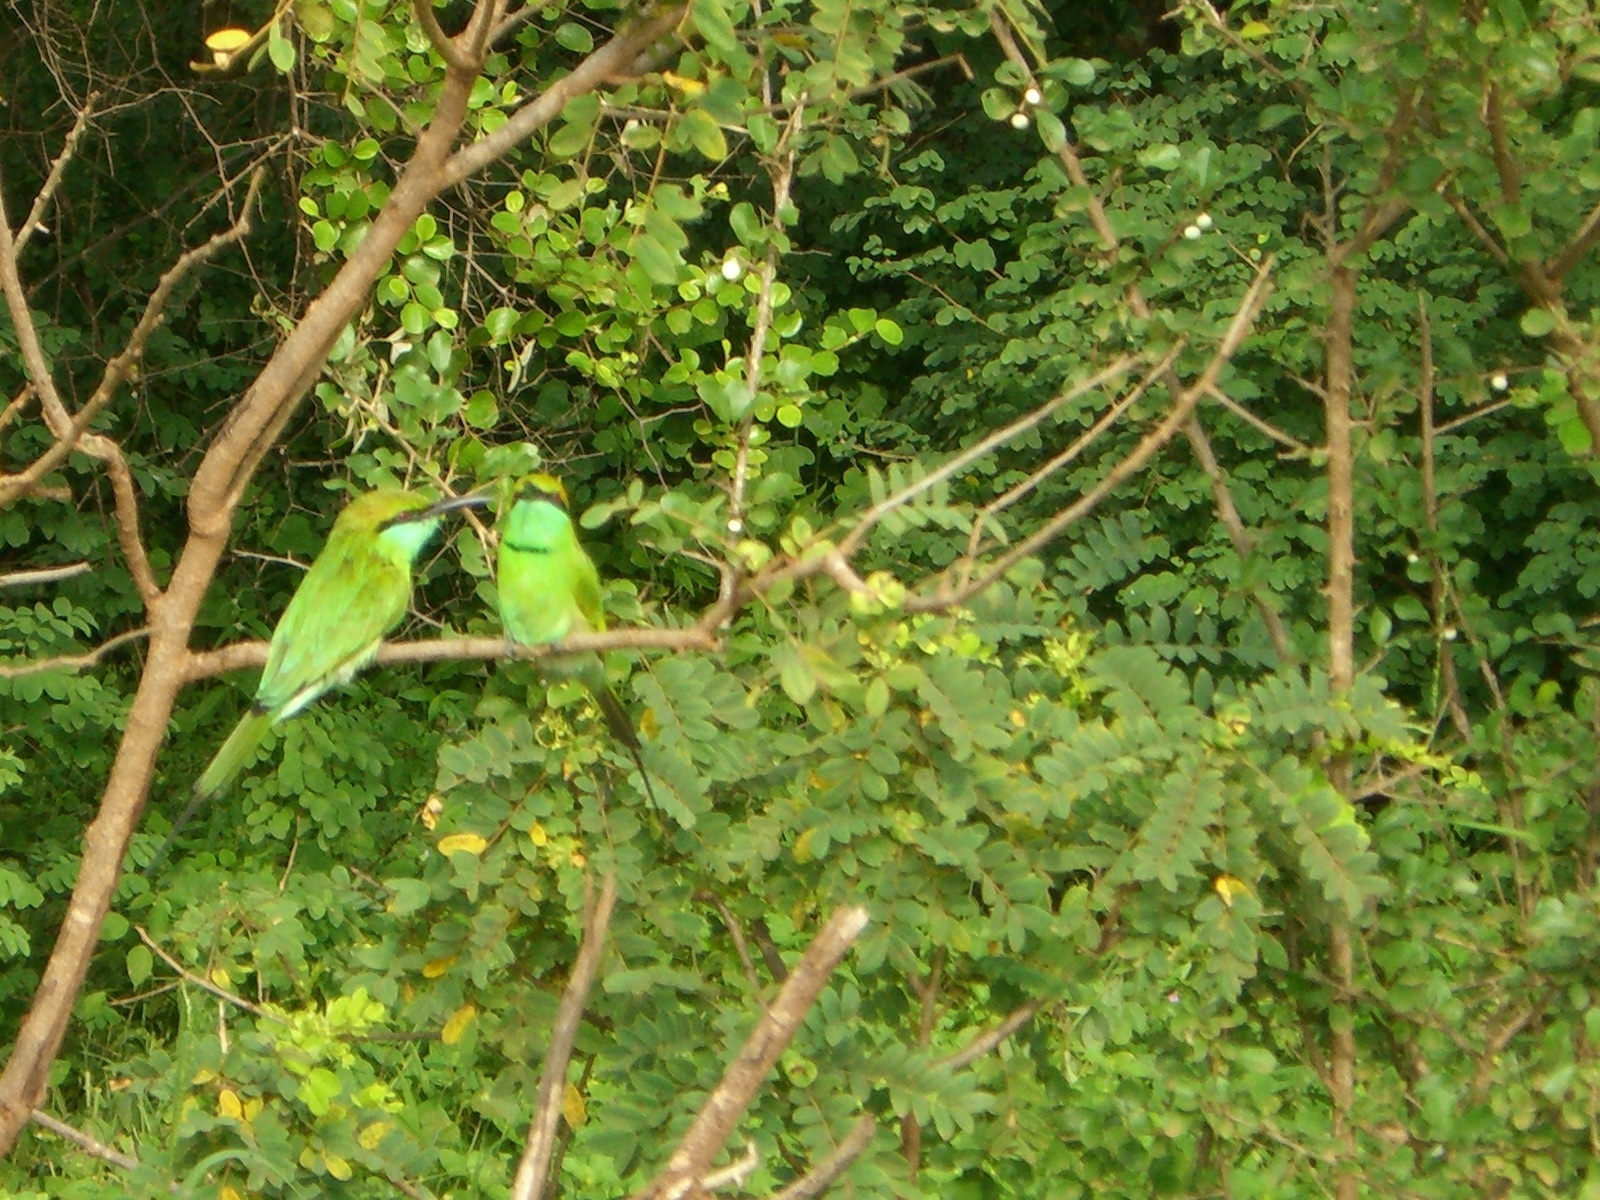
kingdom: Animalia
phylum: Chordata
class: Aves
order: Coraciiformes
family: Meropidae
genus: Merops
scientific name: Merops orientalis
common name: Green bee-eater
